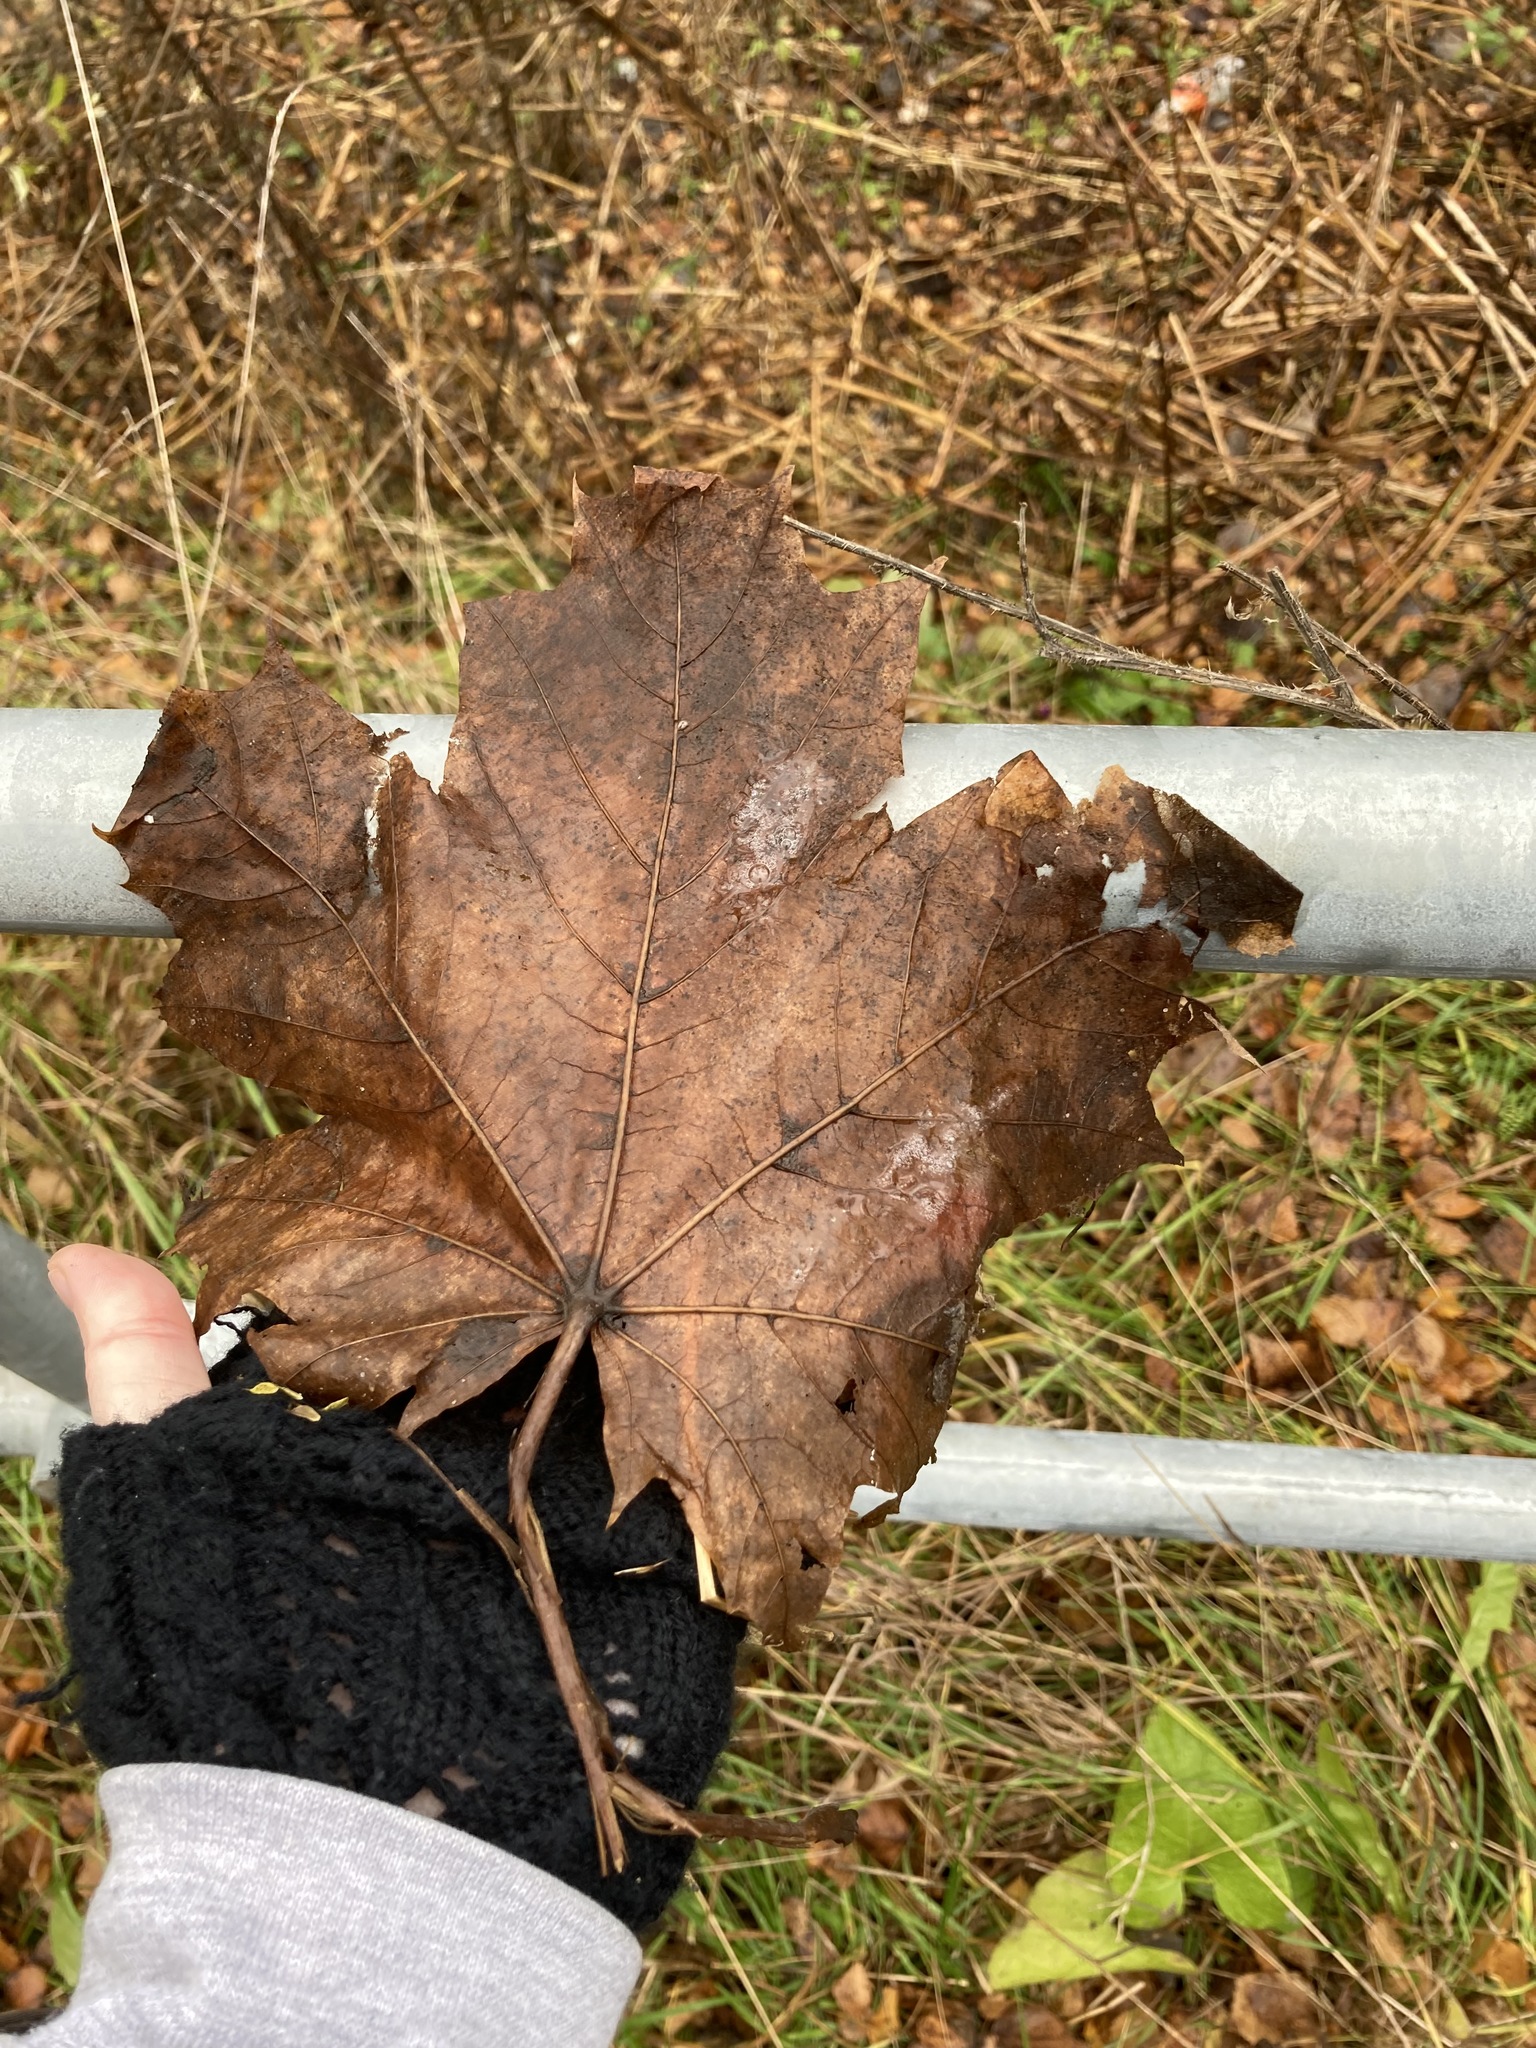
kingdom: Plantae
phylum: Tracheophyta
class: Magnoliopsida
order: Sapindales
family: Sapindaceae
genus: Acer
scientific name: Acer platanoides
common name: Norway maple
